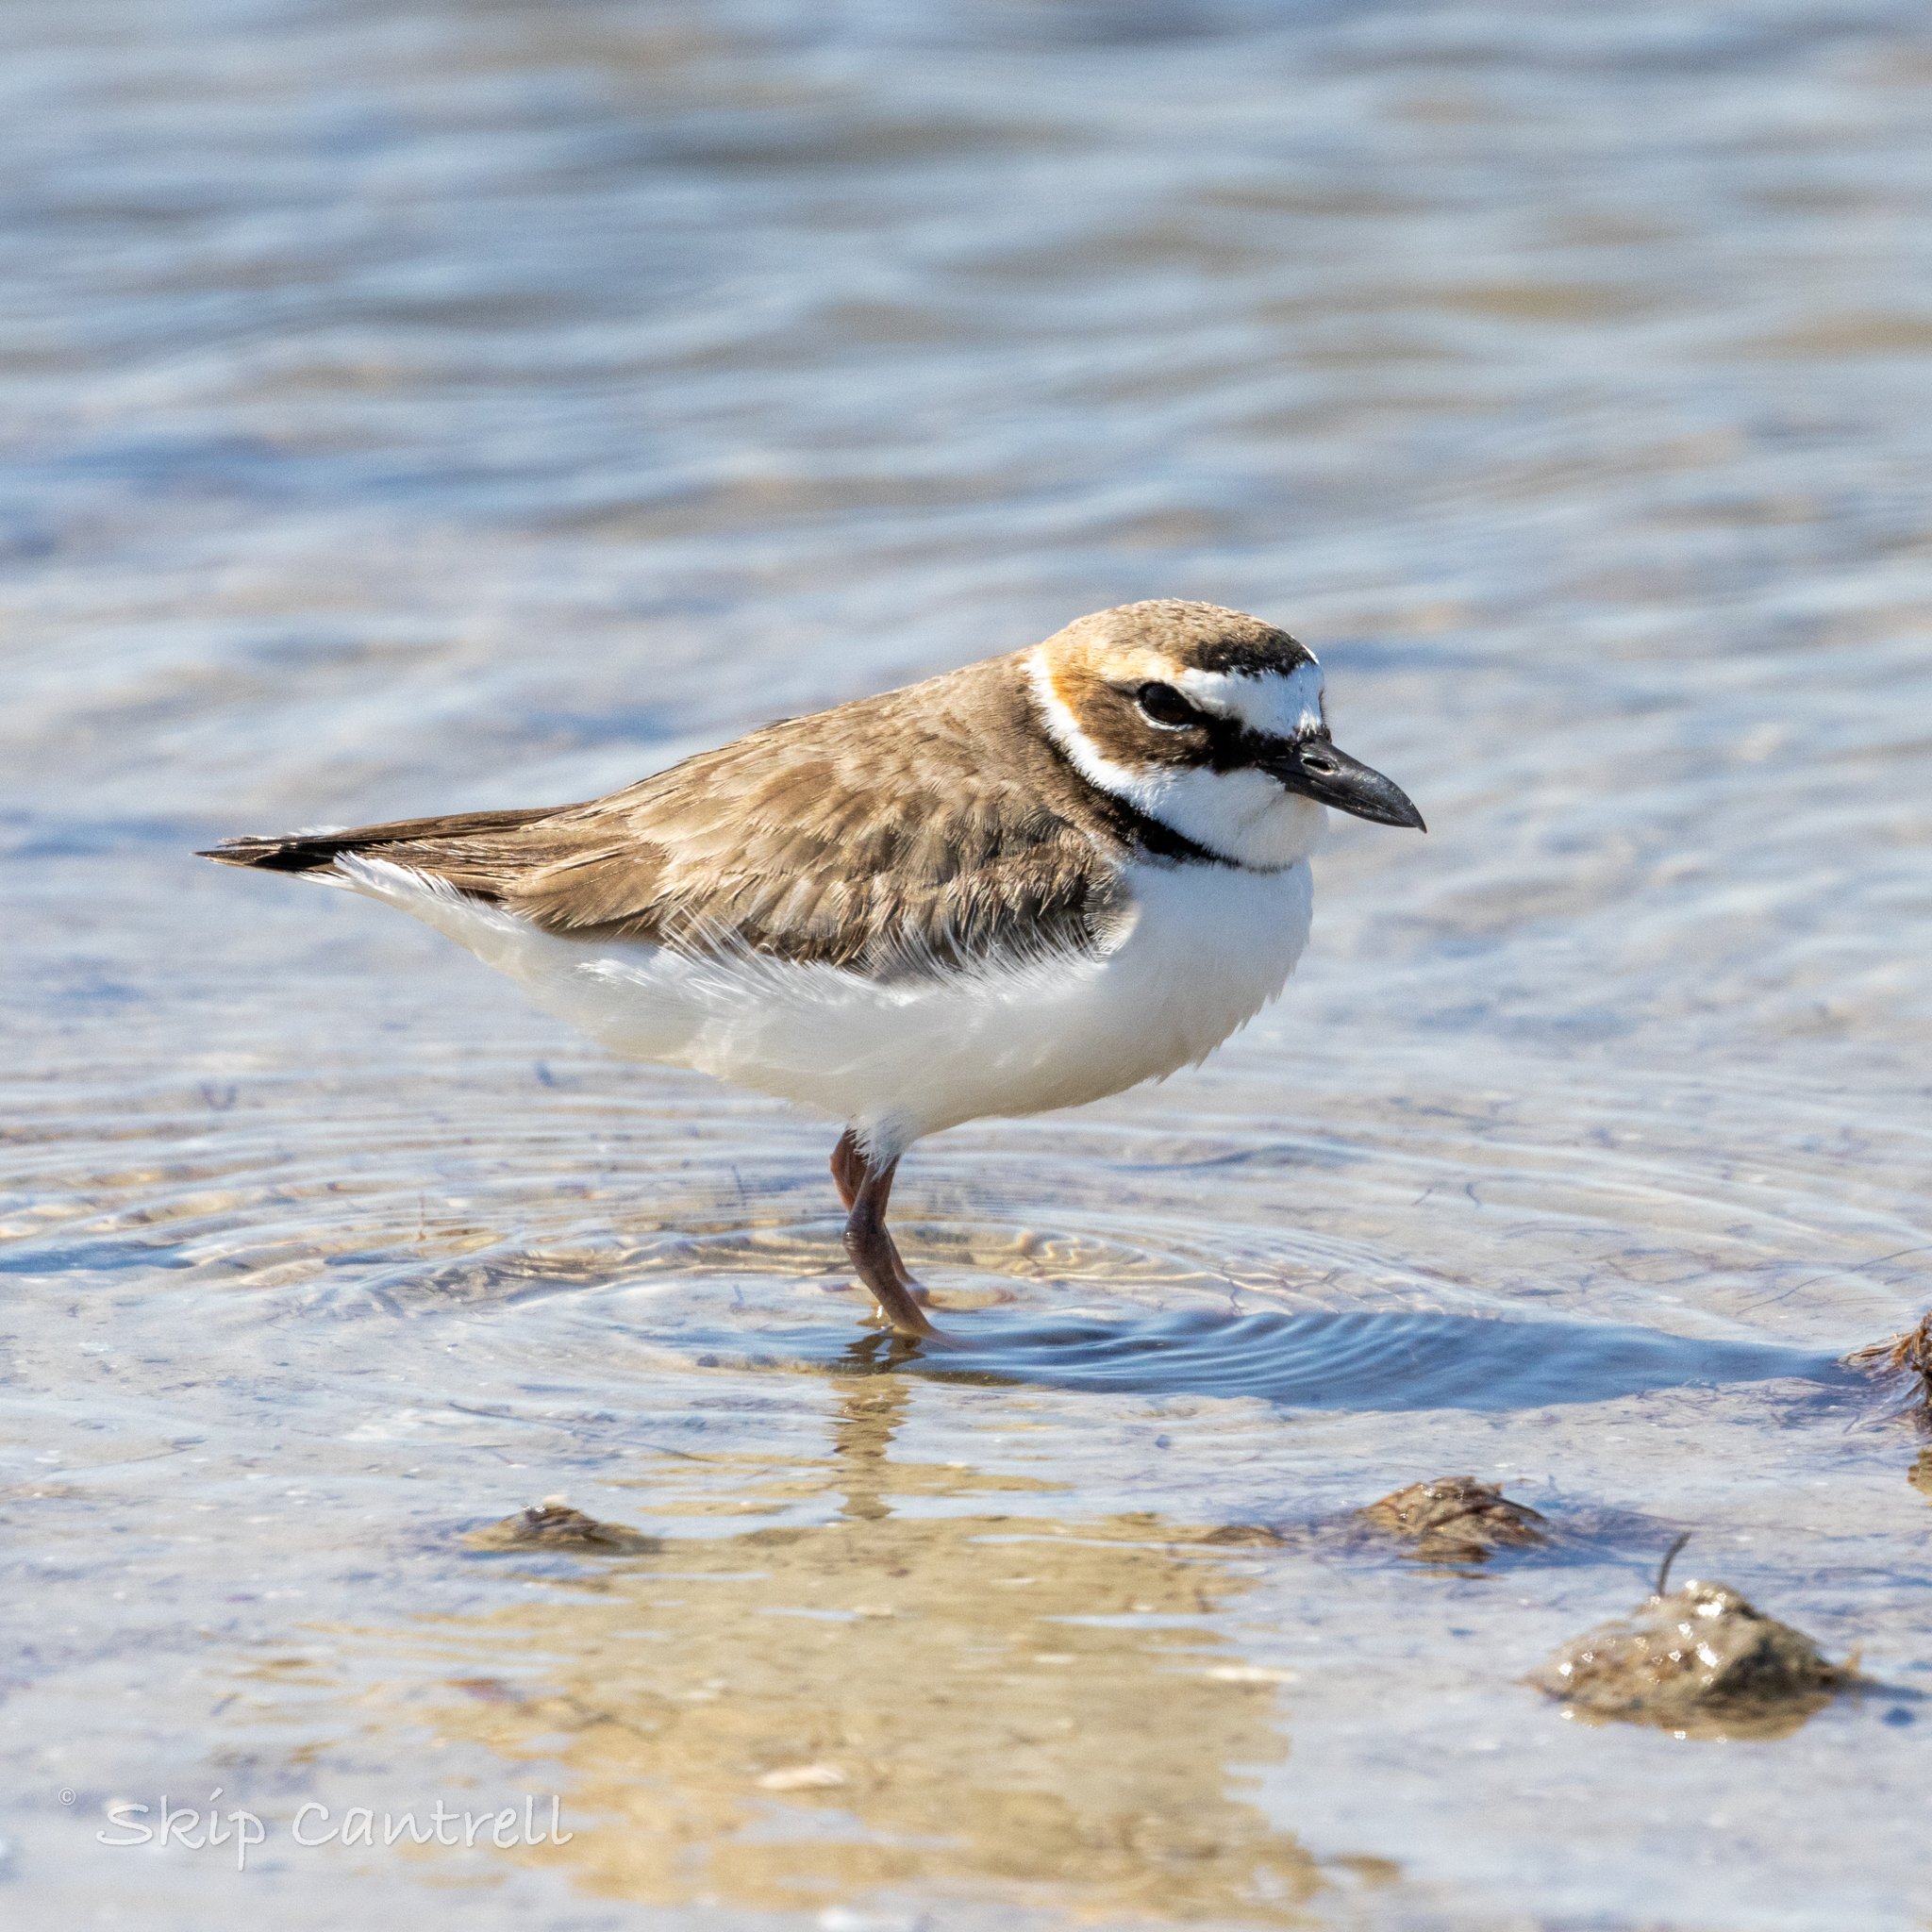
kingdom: Animalia
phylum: Chordata
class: Aves
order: Charadriiformes
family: Charadriidae
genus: Anarhynchus
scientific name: Anarhynchus
